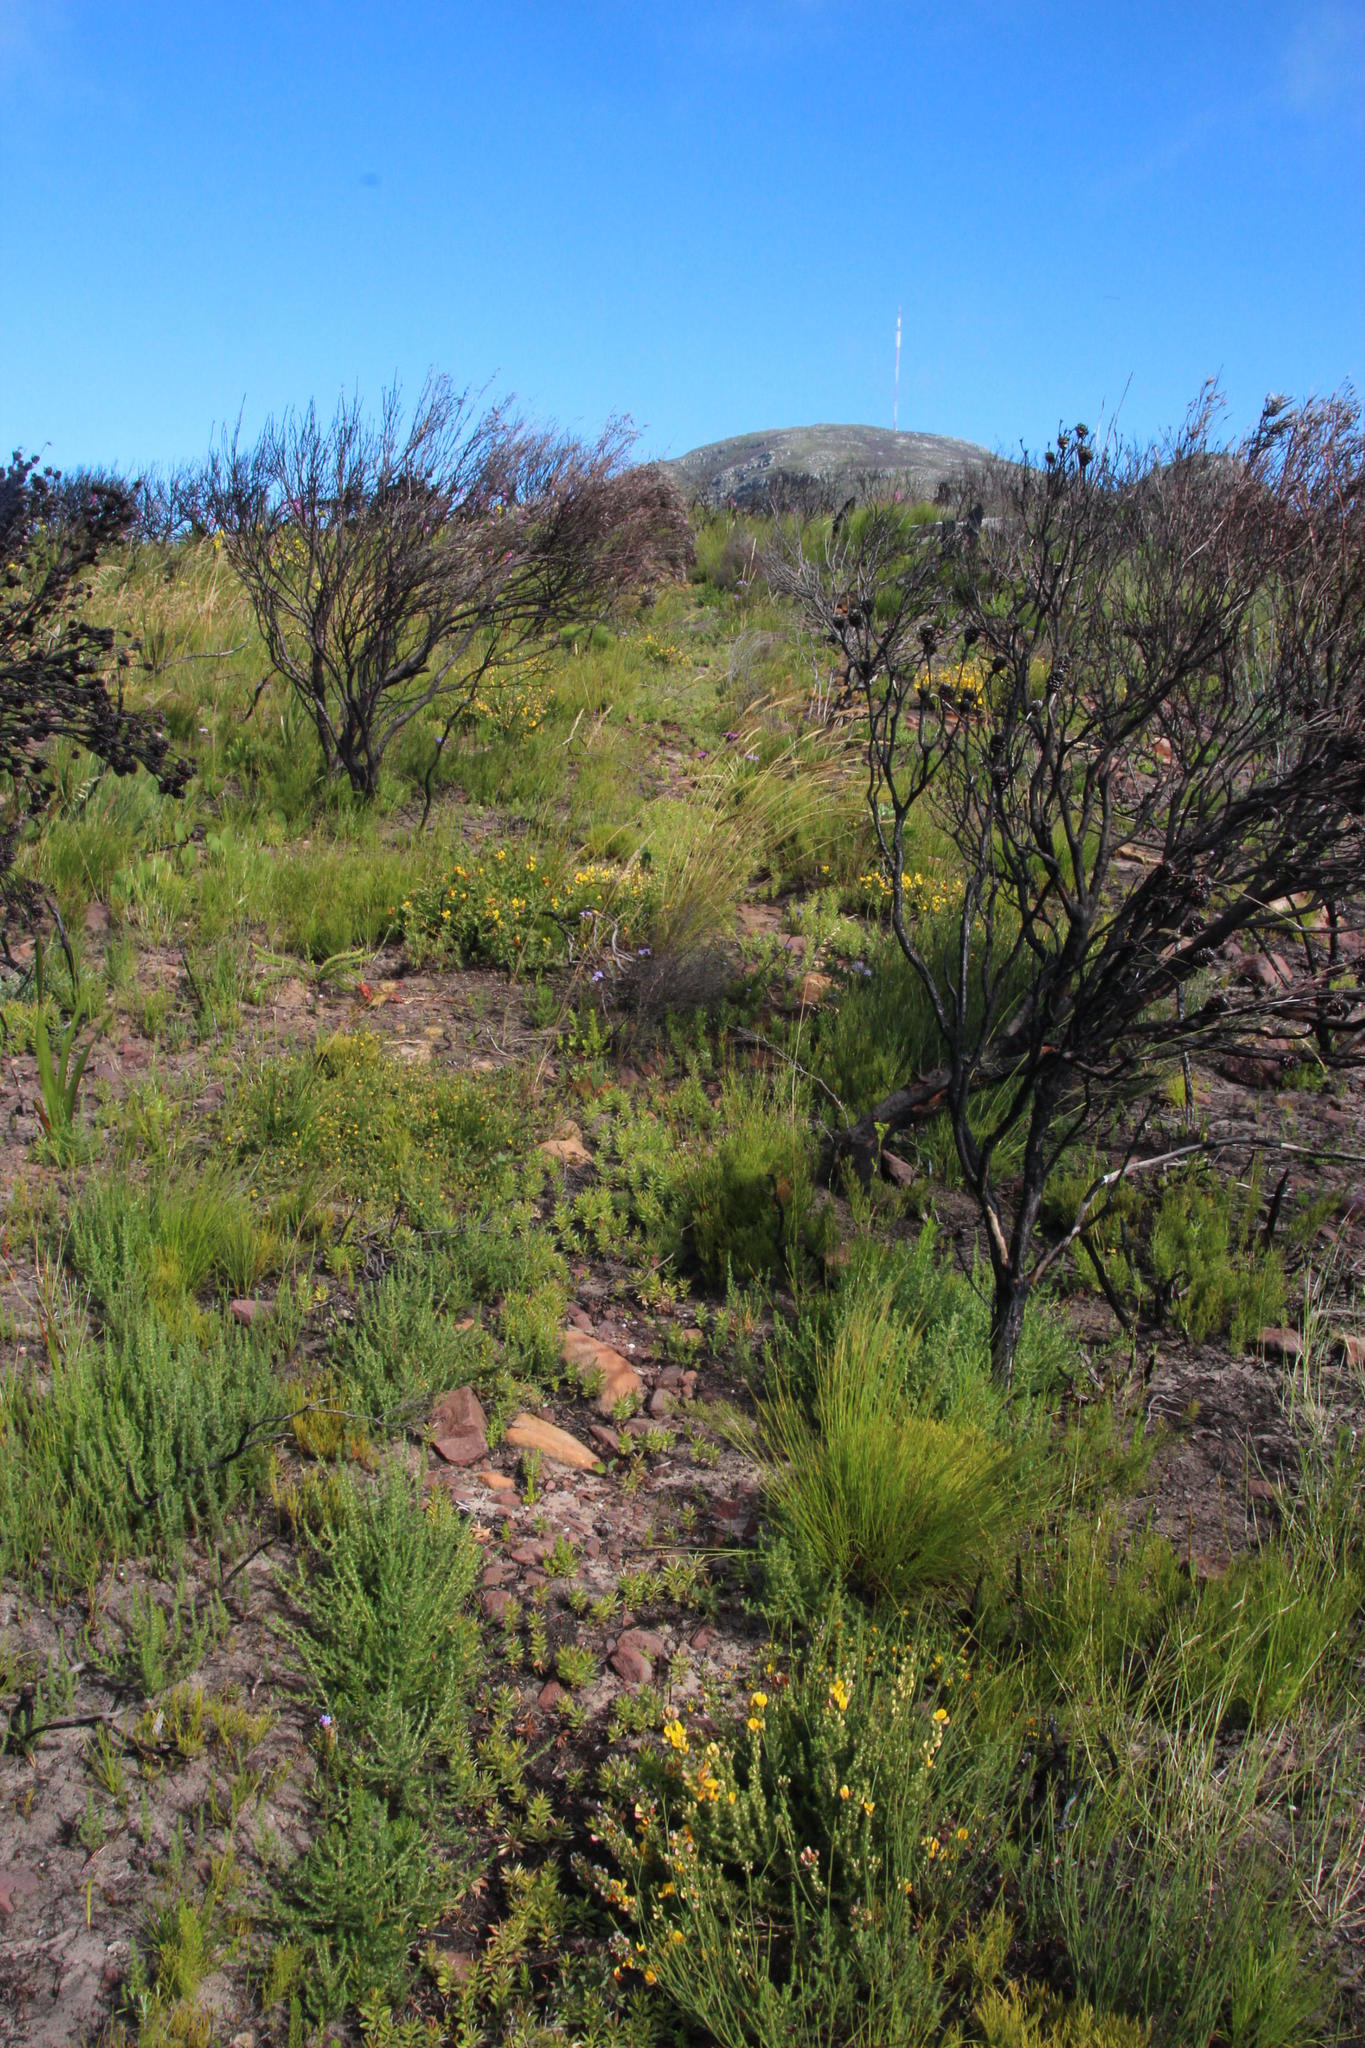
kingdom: Plantae
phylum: Tracheophyta
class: Magnoliopsida
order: Fabales
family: Fabaceae
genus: Aspalathus
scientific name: Aspalathus crenata
